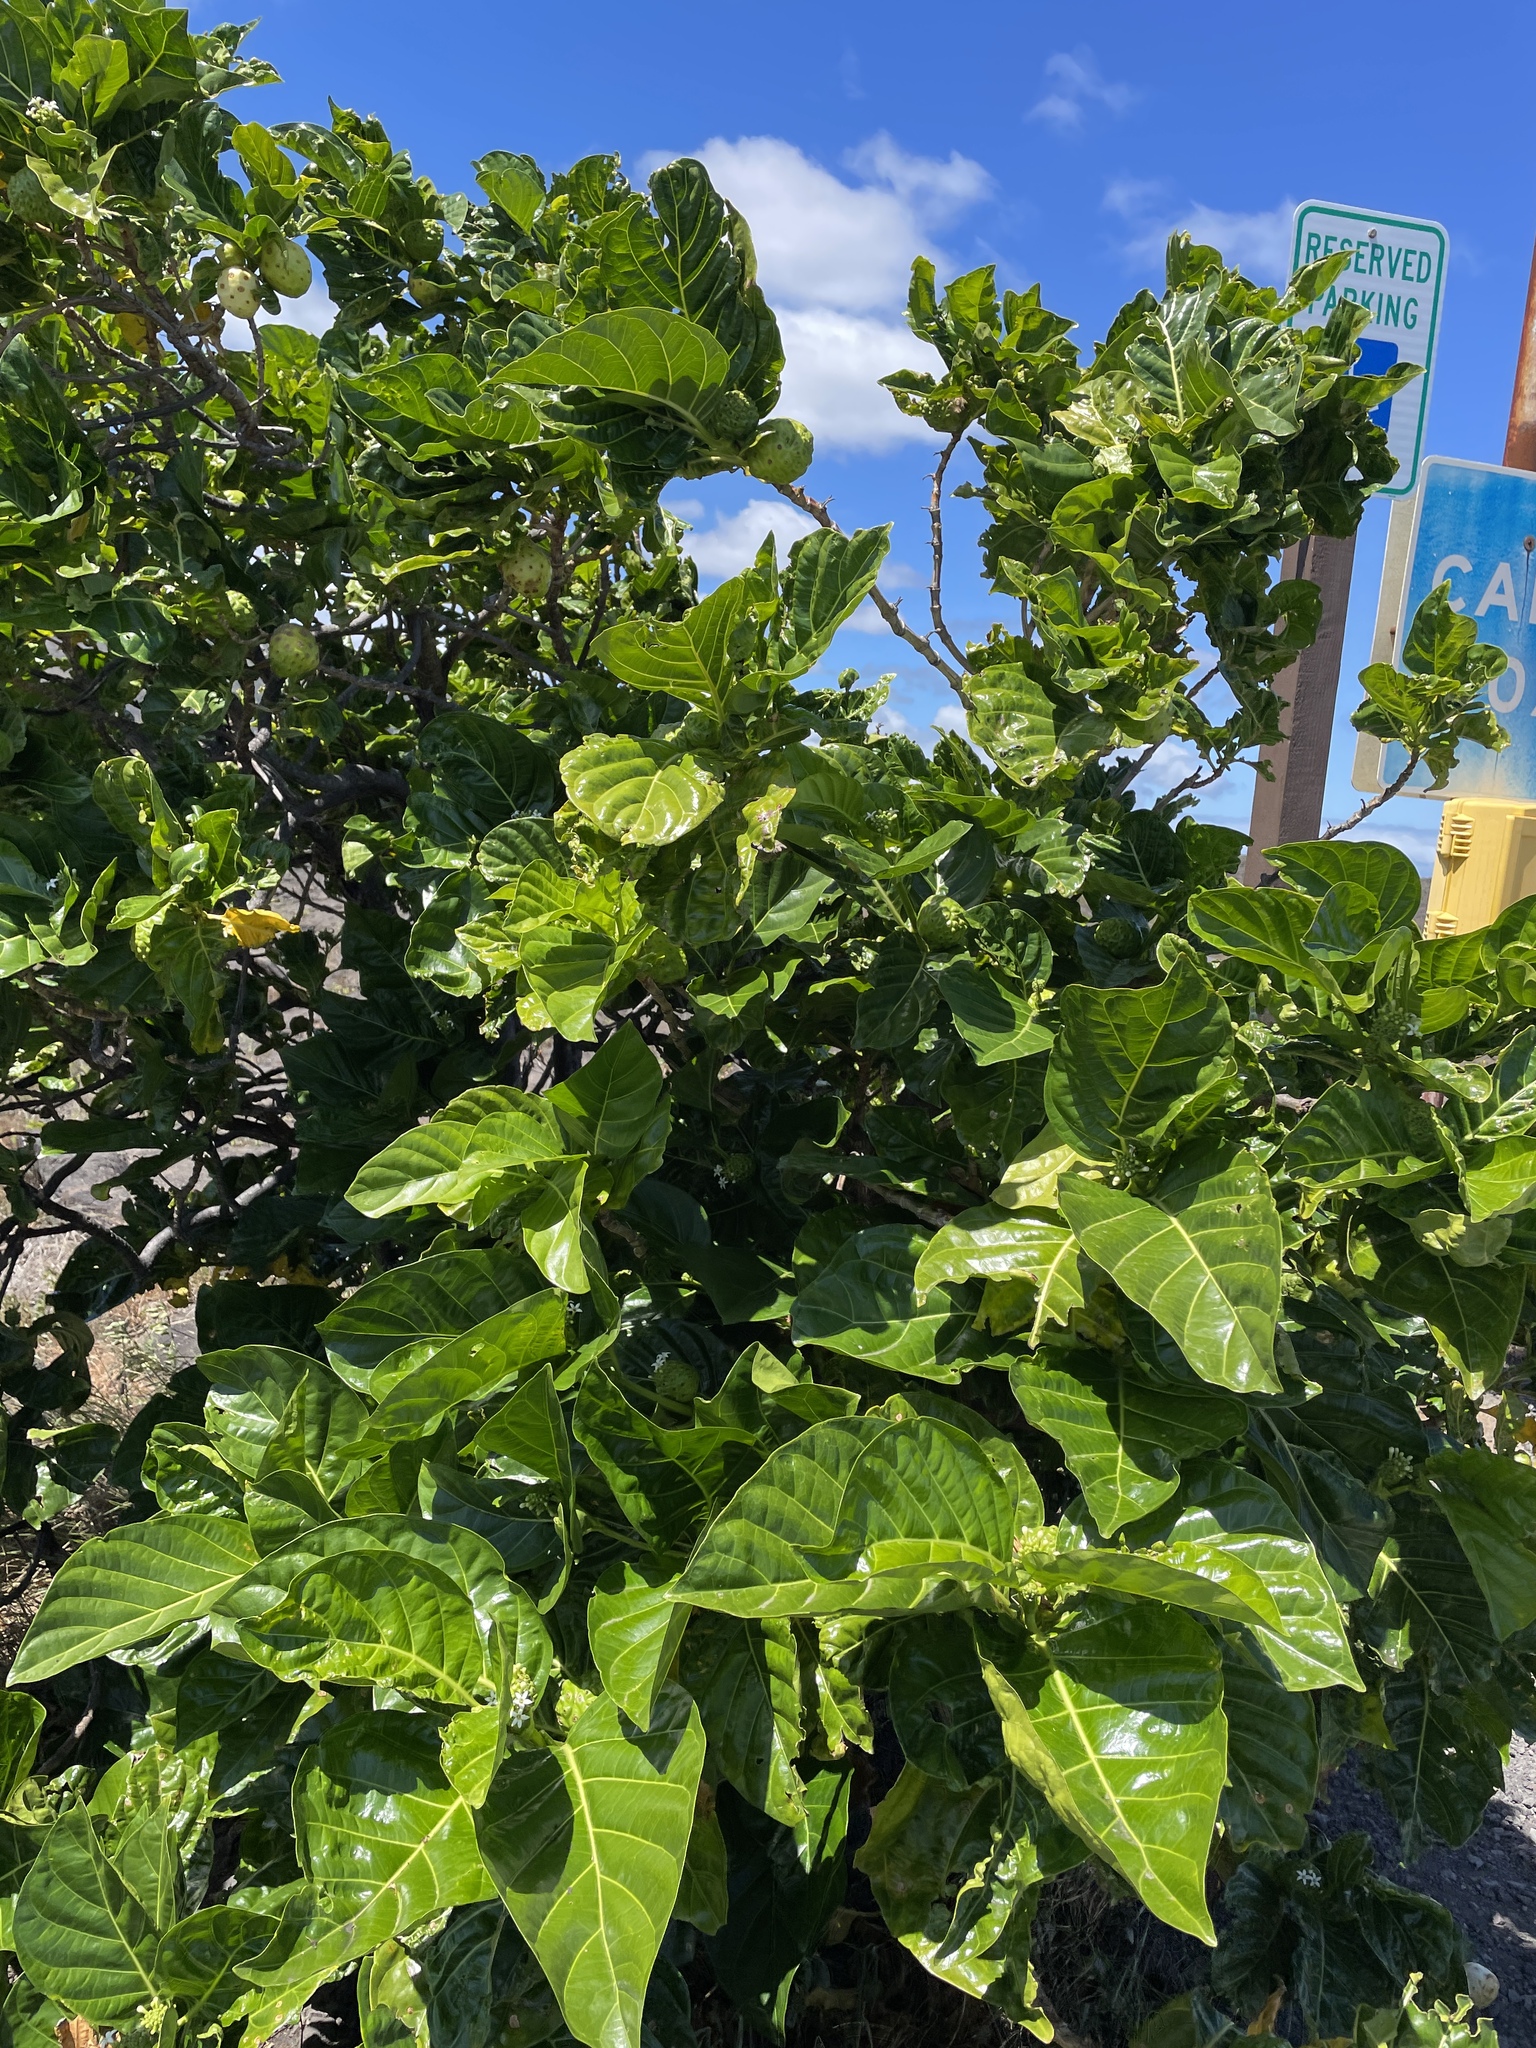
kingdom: Plantae
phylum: Tracheophyta
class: Magnoliopsida
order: Gentianales
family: Rubiaceae
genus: Morinda
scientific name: Morinda citrifolia
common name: Indian-mulberry
